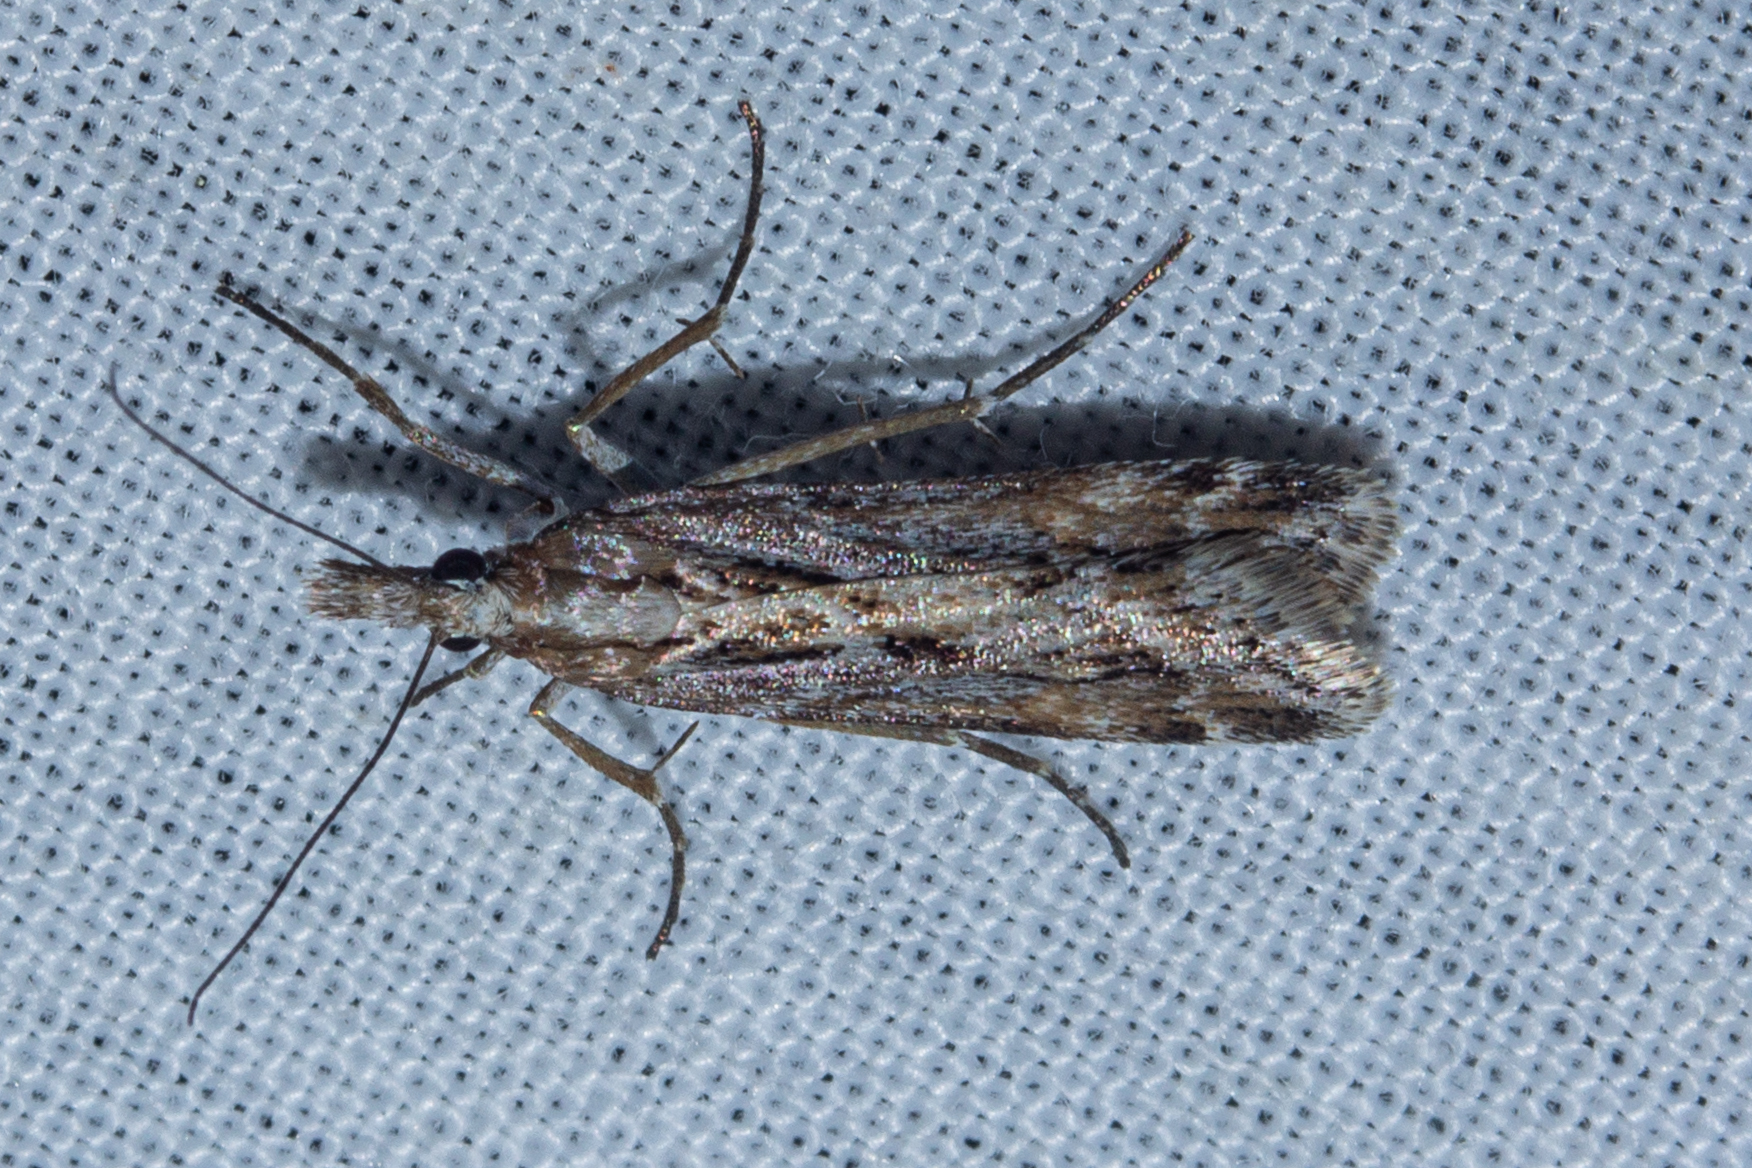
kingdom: Animalia
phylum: Arthropoda
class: Insecta
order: Lepidoptera
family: Crambidae
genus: Scoparia
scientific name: Scoparia exilis
